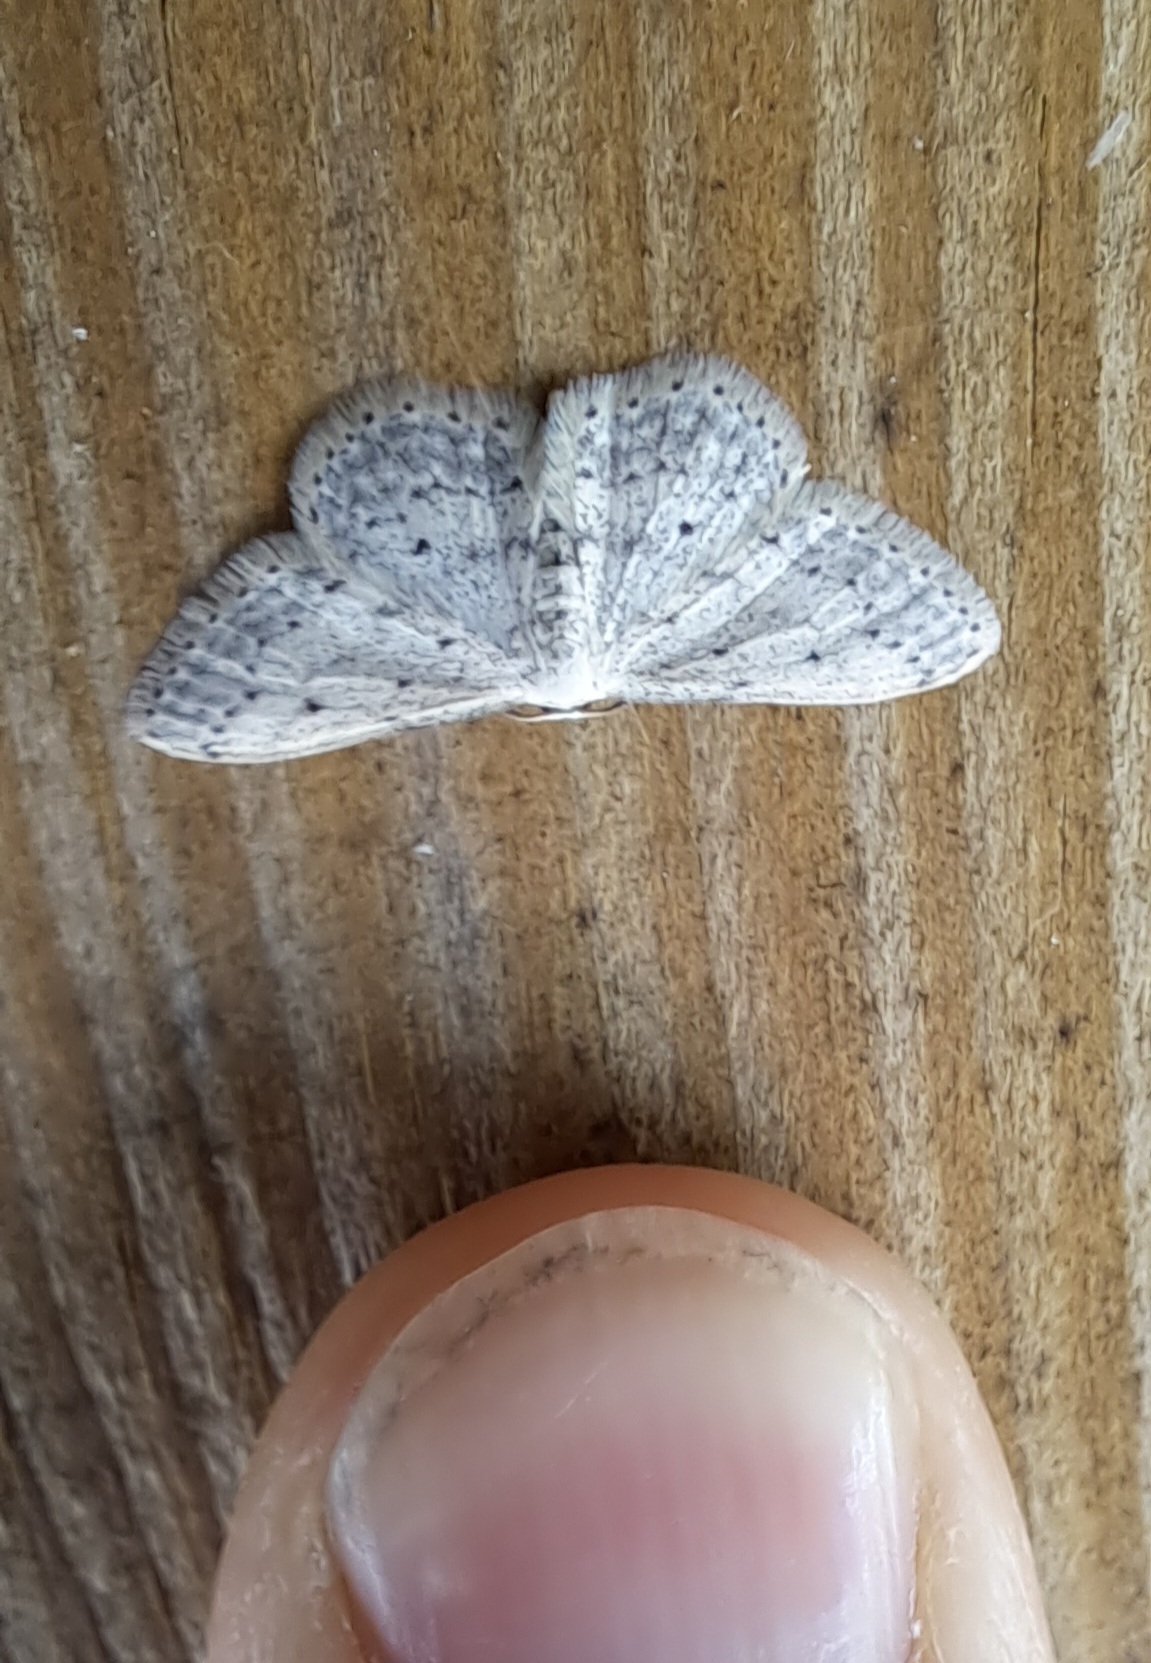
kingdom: Animalia
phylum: Arthropoda
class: Insecta
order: Lepidoptera
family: Geometridae
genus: Idaea
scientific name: Idaea seriata
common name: Small dusty wave
